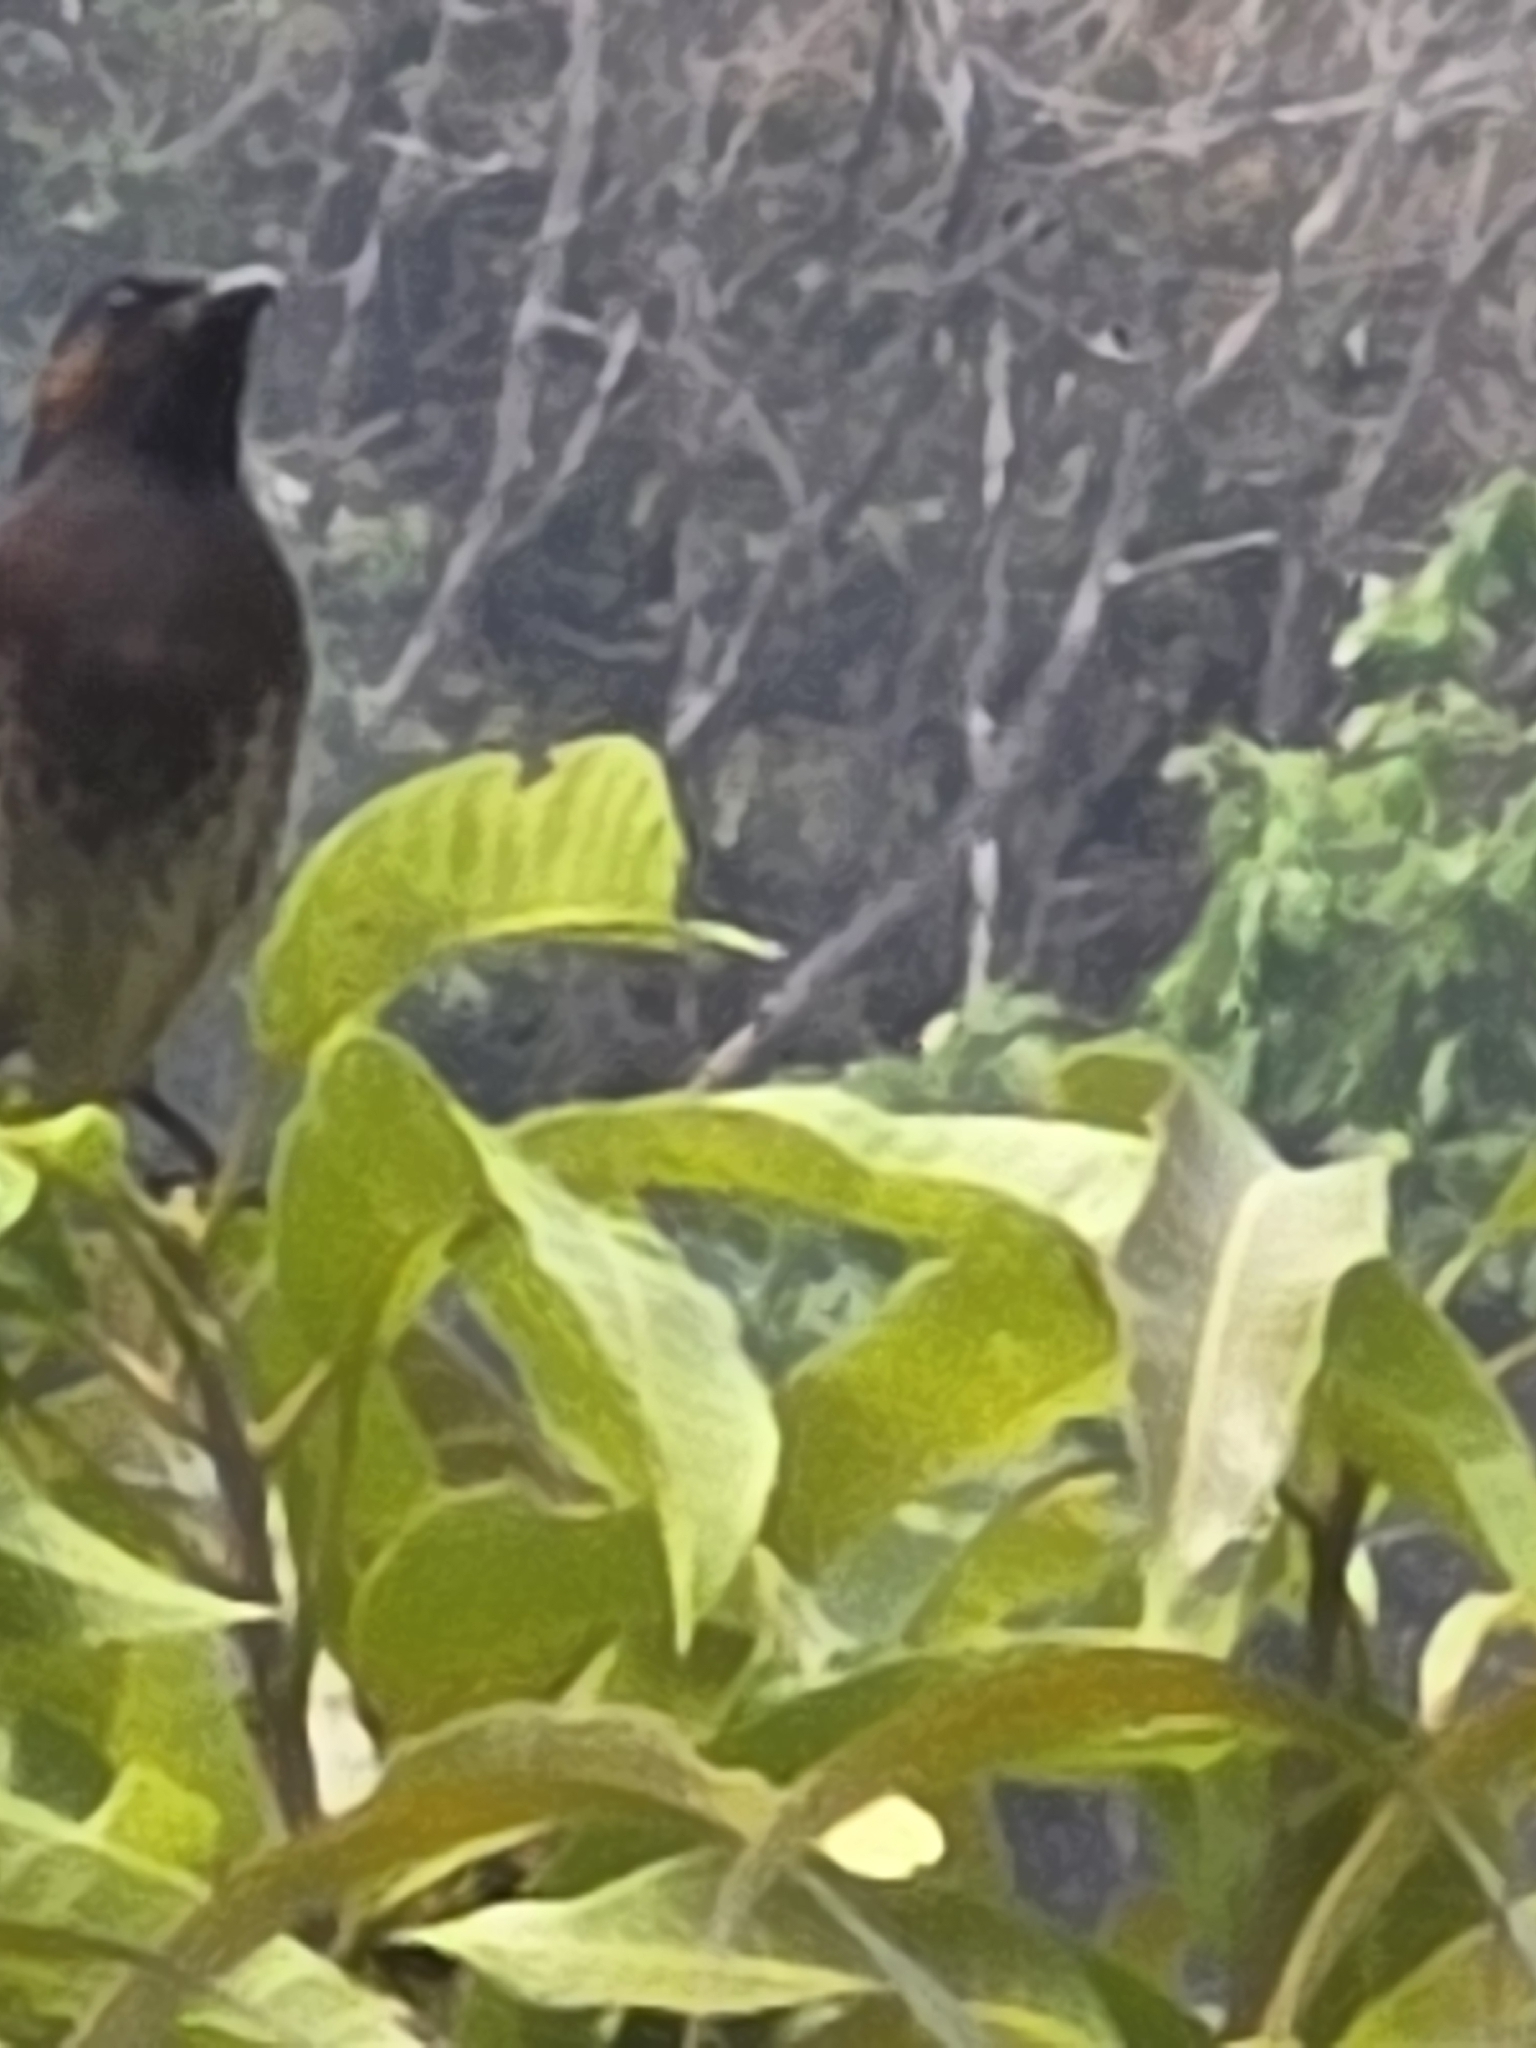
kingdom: Animalia
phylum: Chordata
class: Aves
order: Passeriformes
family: Pycnonotidae
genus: Pycnonotus
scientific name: Pycnonotus cafer
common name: Red-vented bulbul
